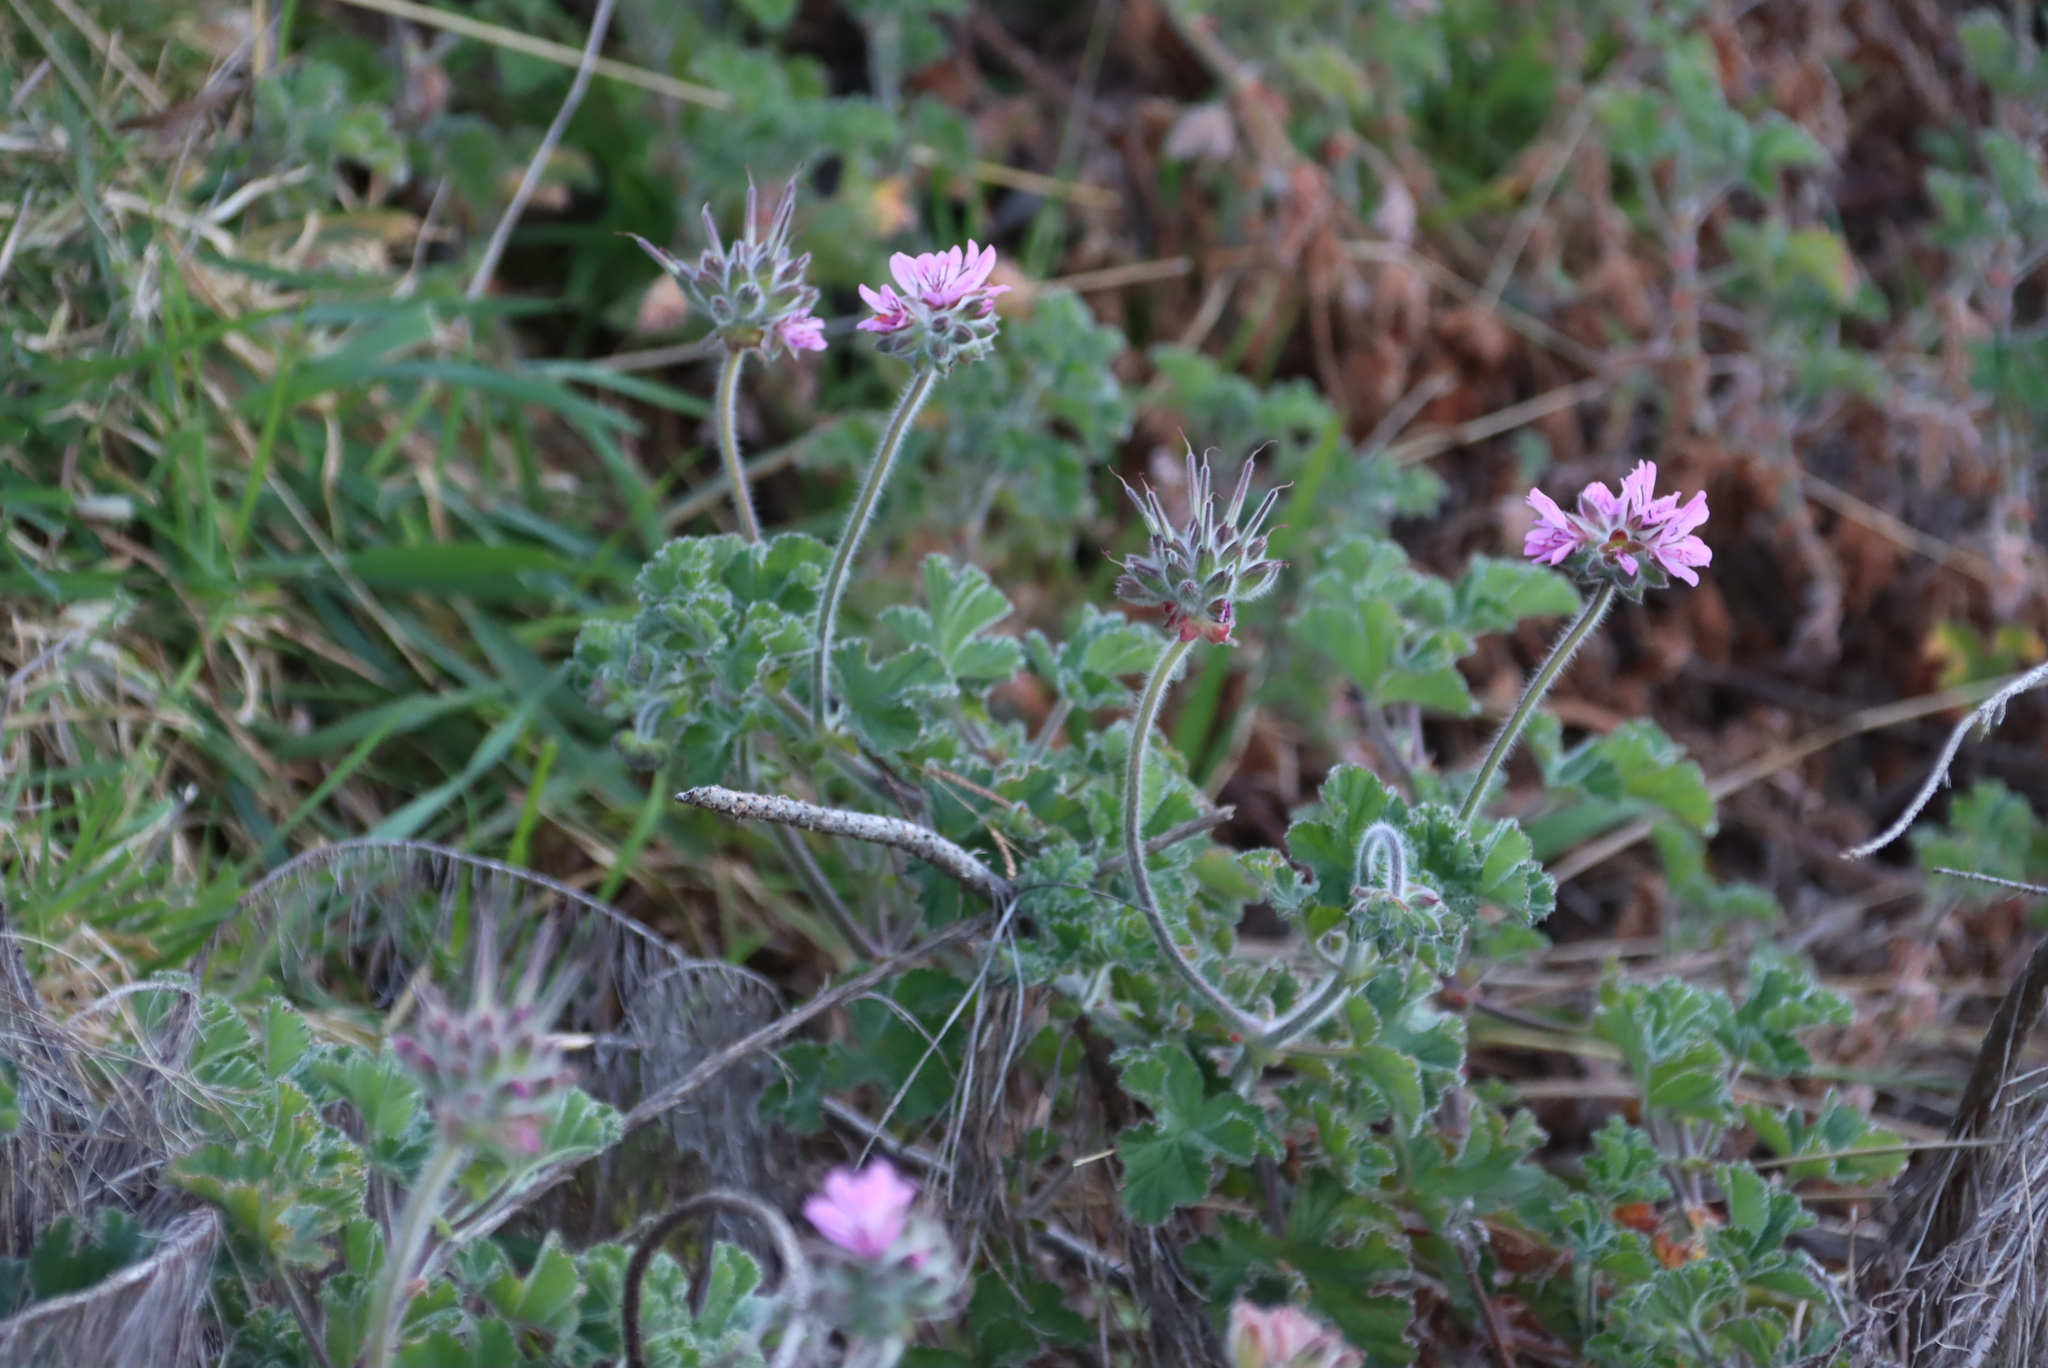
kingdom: Plantae
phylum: Tracheophyta
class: Magnoliopsida
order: Geraniales
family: Geraniaceae
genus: Pelargonium
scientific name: Pelargonium capitatum
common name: Rose scented geranium
